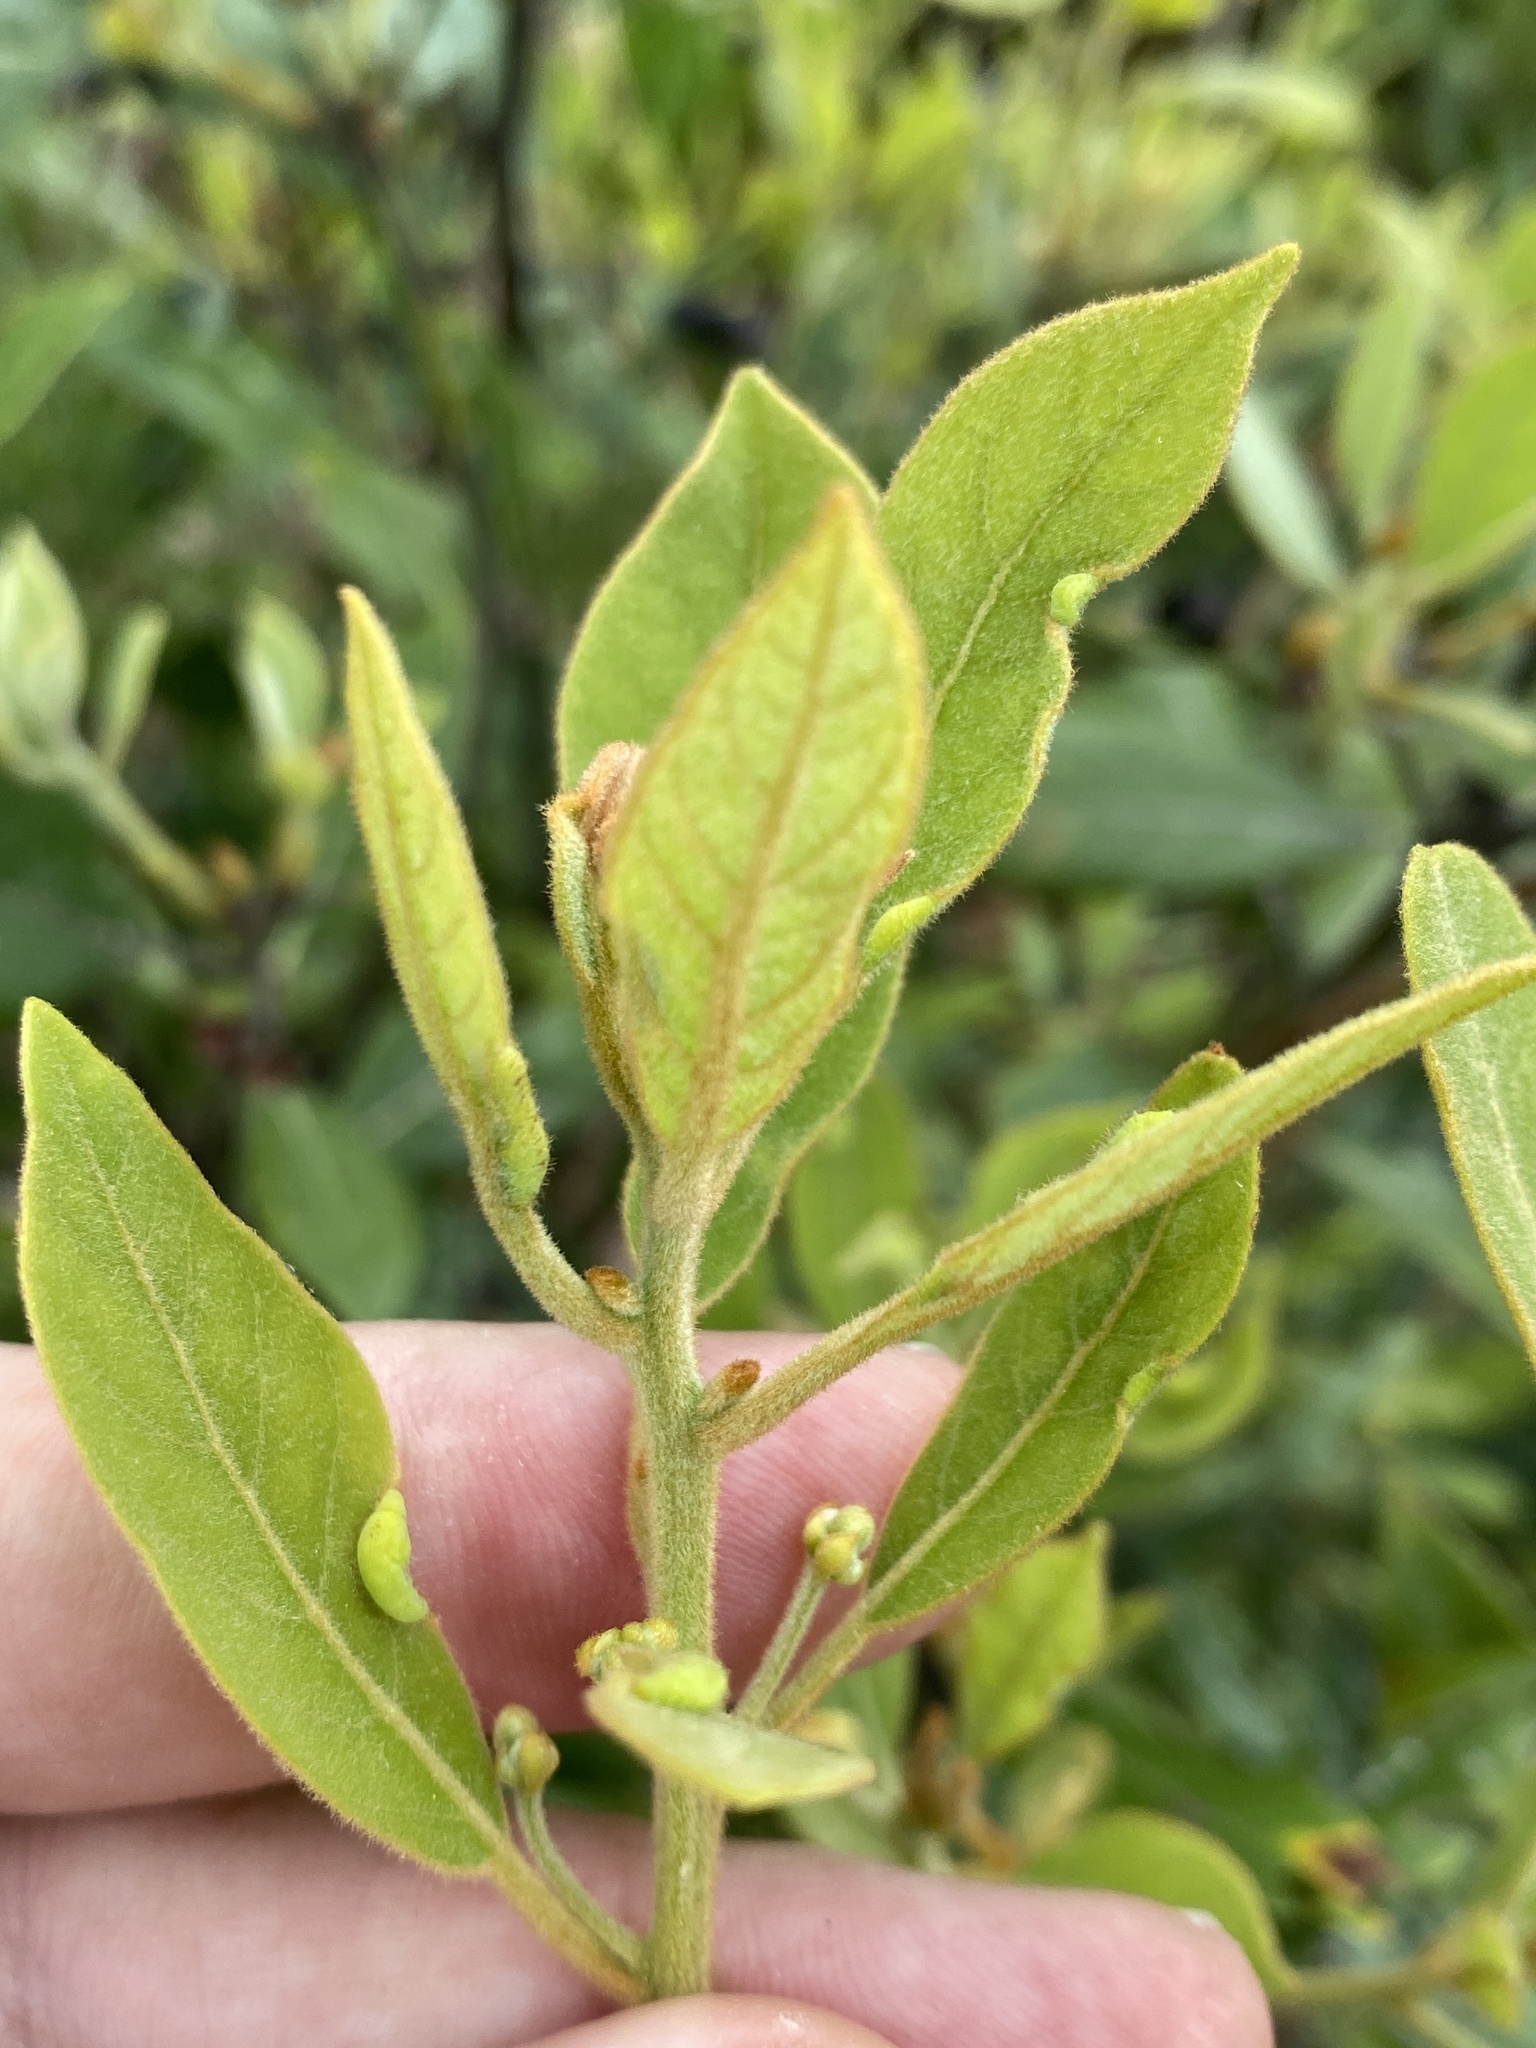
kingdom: Plantae
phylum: Tracheophyta
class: Magnoliopsida
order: Laurales
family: Lauraceae
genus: Persea
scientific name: Persea palustris
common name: Swampbay
